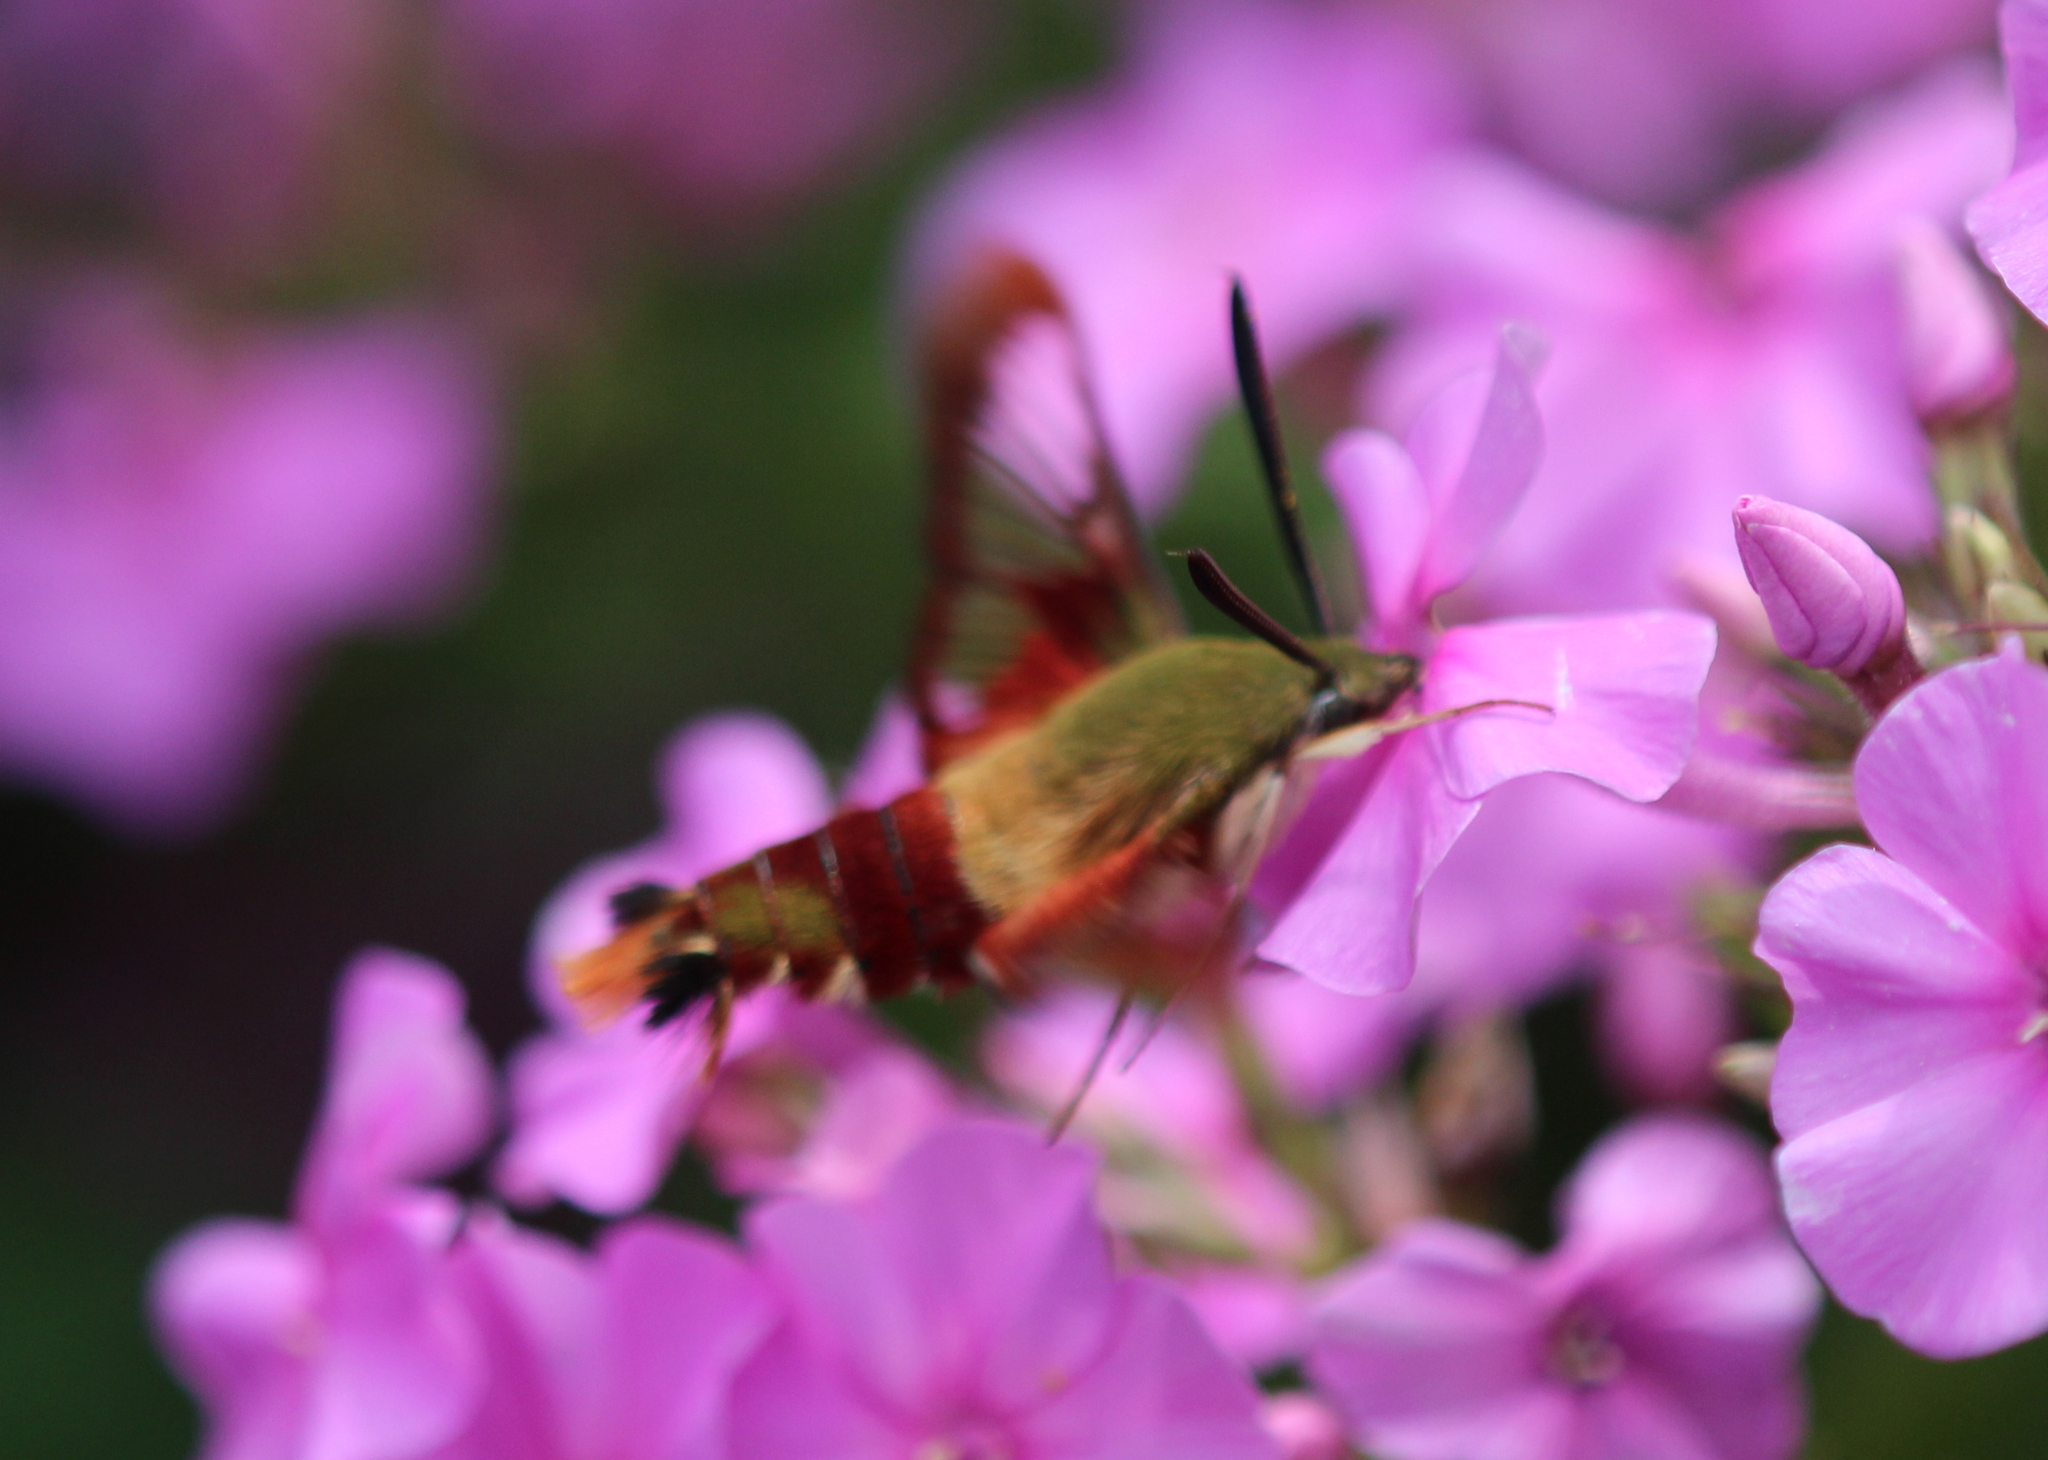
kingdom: Animalia
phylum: Arthropoda
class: Insecta
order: Lepidoptera
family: Sphingidae
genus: Hemaris
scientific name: Hemaris thysbe
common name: Common clear-wing
